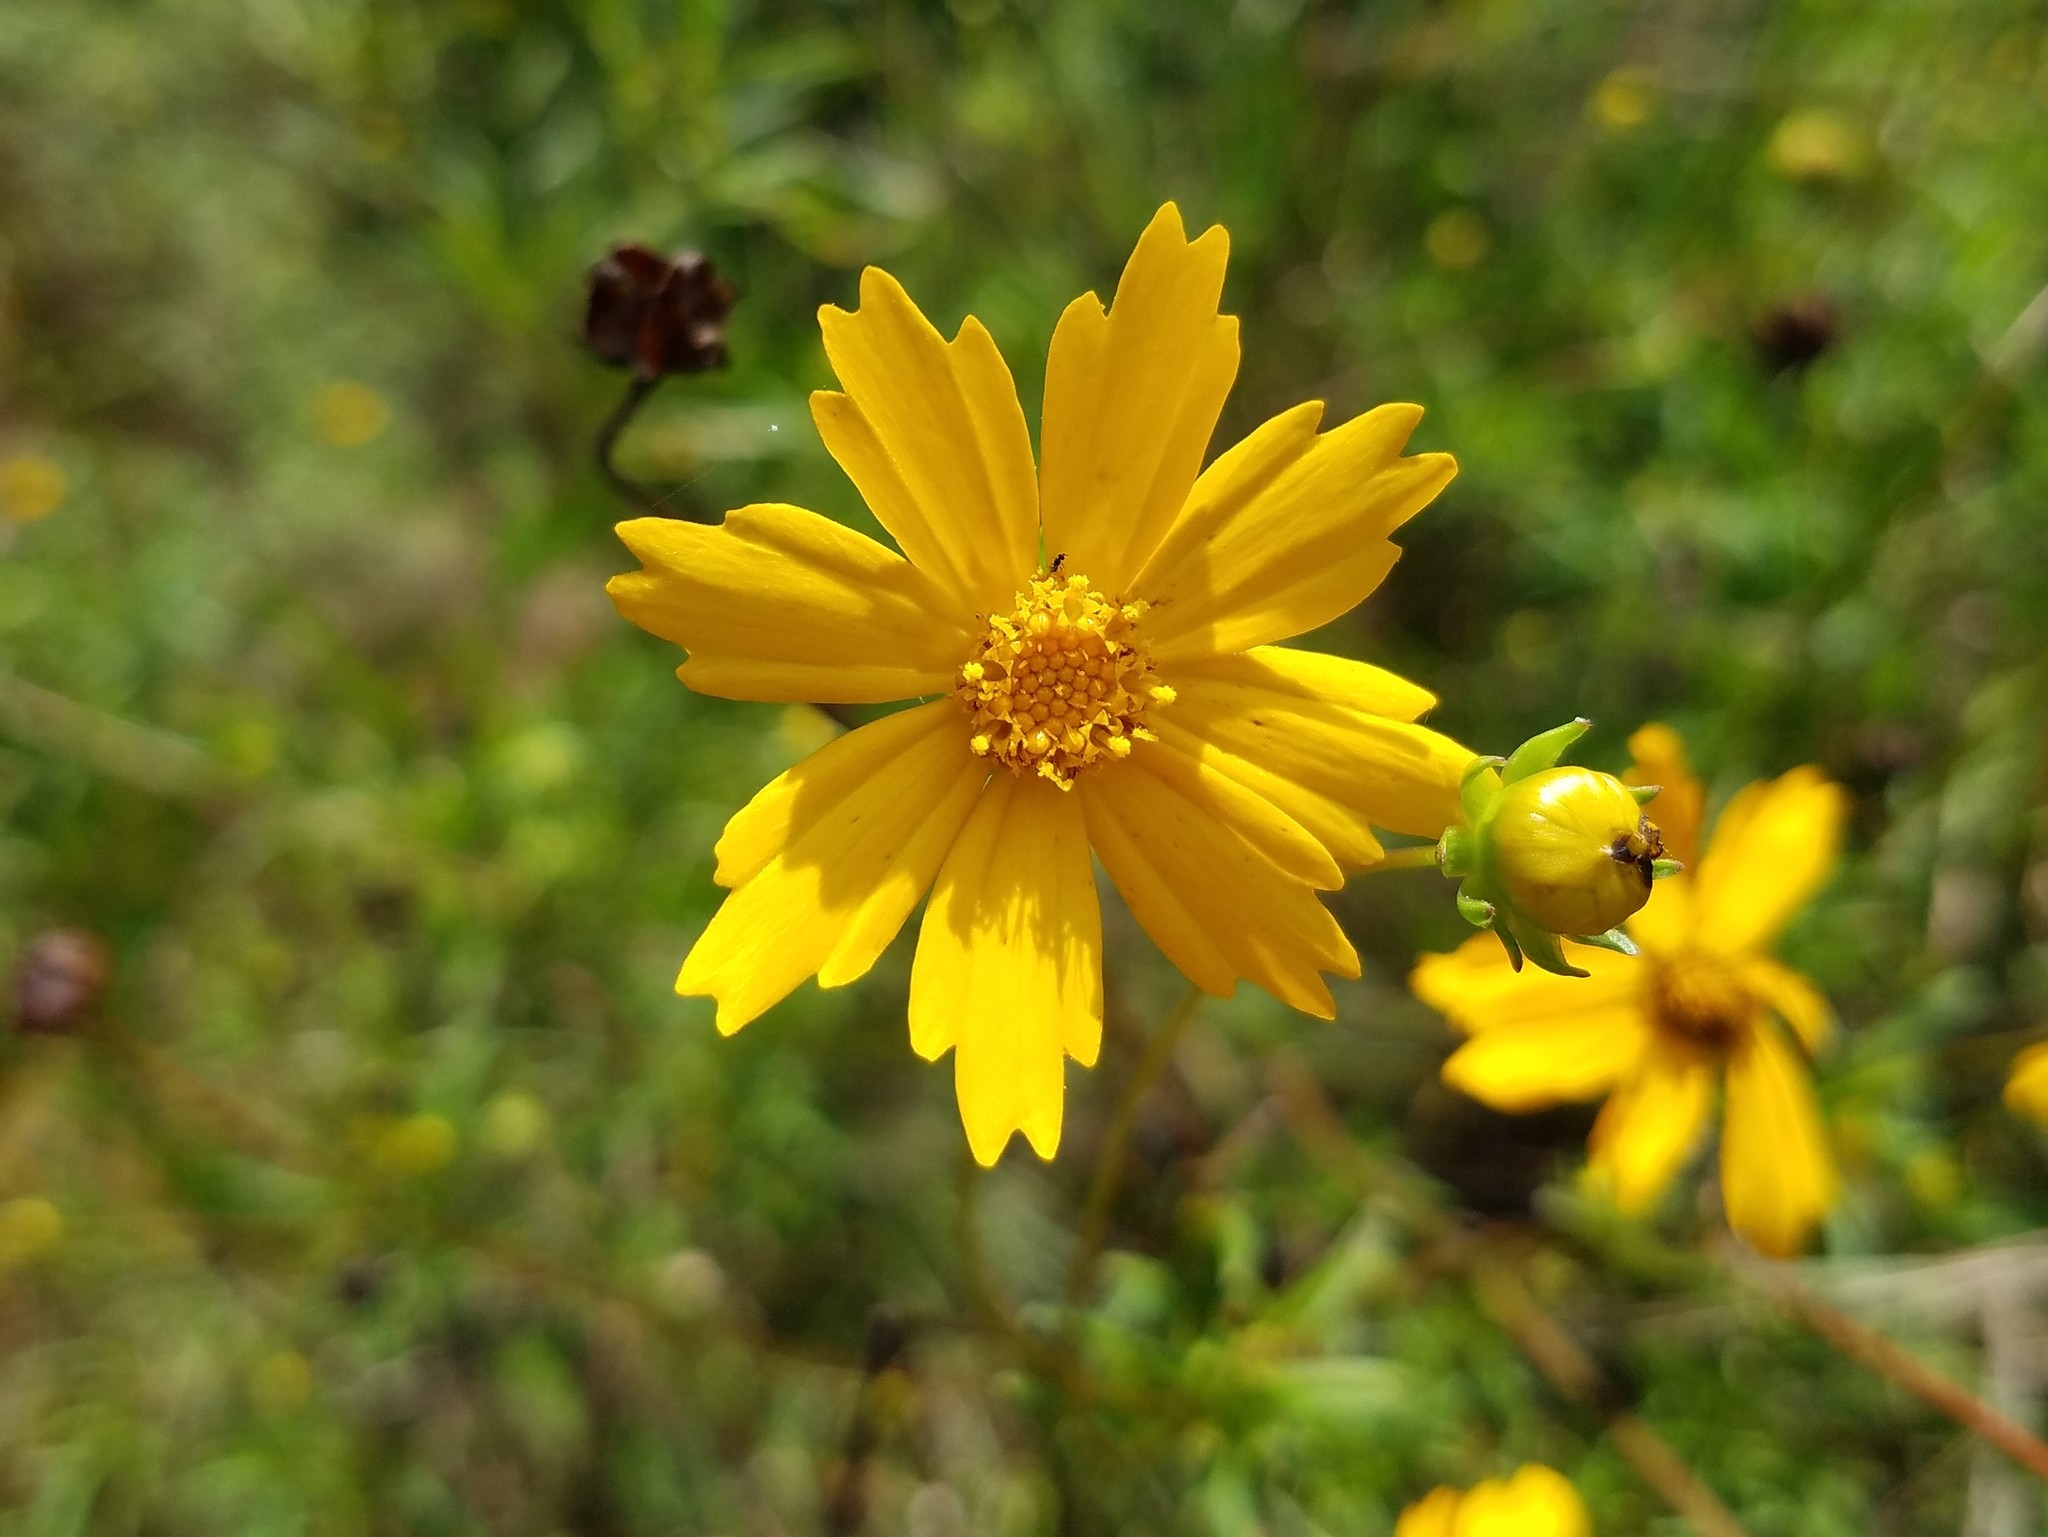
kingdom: Plantae
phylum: Tracheophyta
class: Magnoliopsida
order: Asterales
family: Asteraceae
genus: Coreopsis
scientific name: Coreopsis lanceolata
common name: Garden coreopsis
